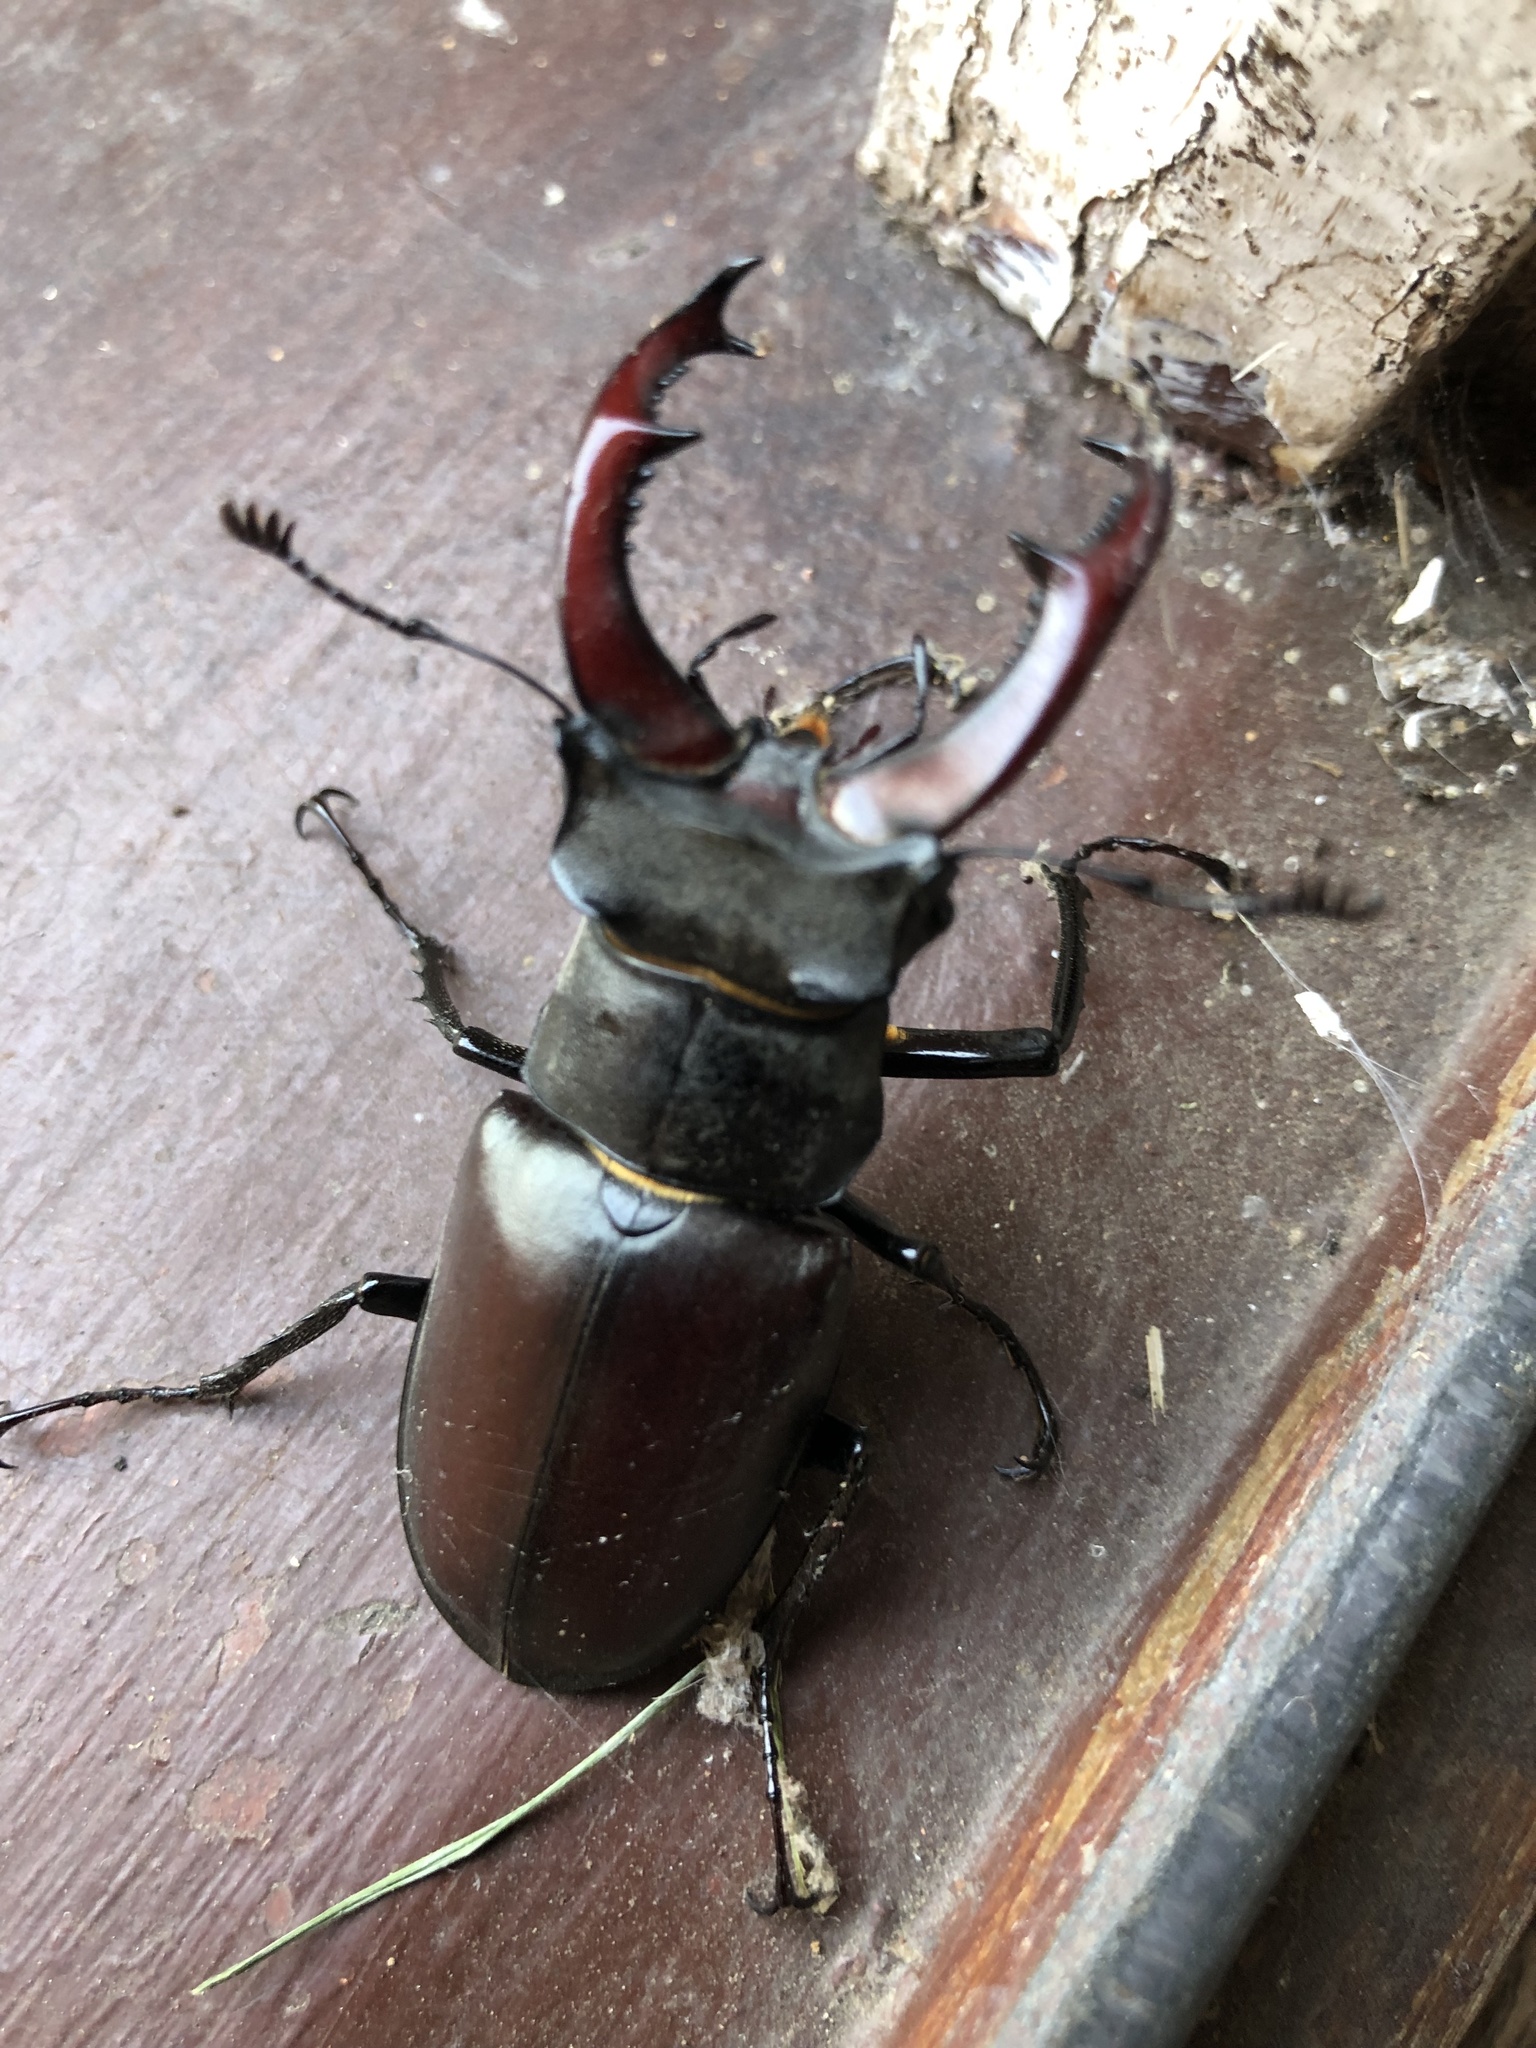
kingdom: Animalia
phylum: Arthropoda
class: Insecta
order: Coleoptera
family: Lucanidae
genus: Lucanus
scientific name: Lucanus cervus
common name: Stag beetle
